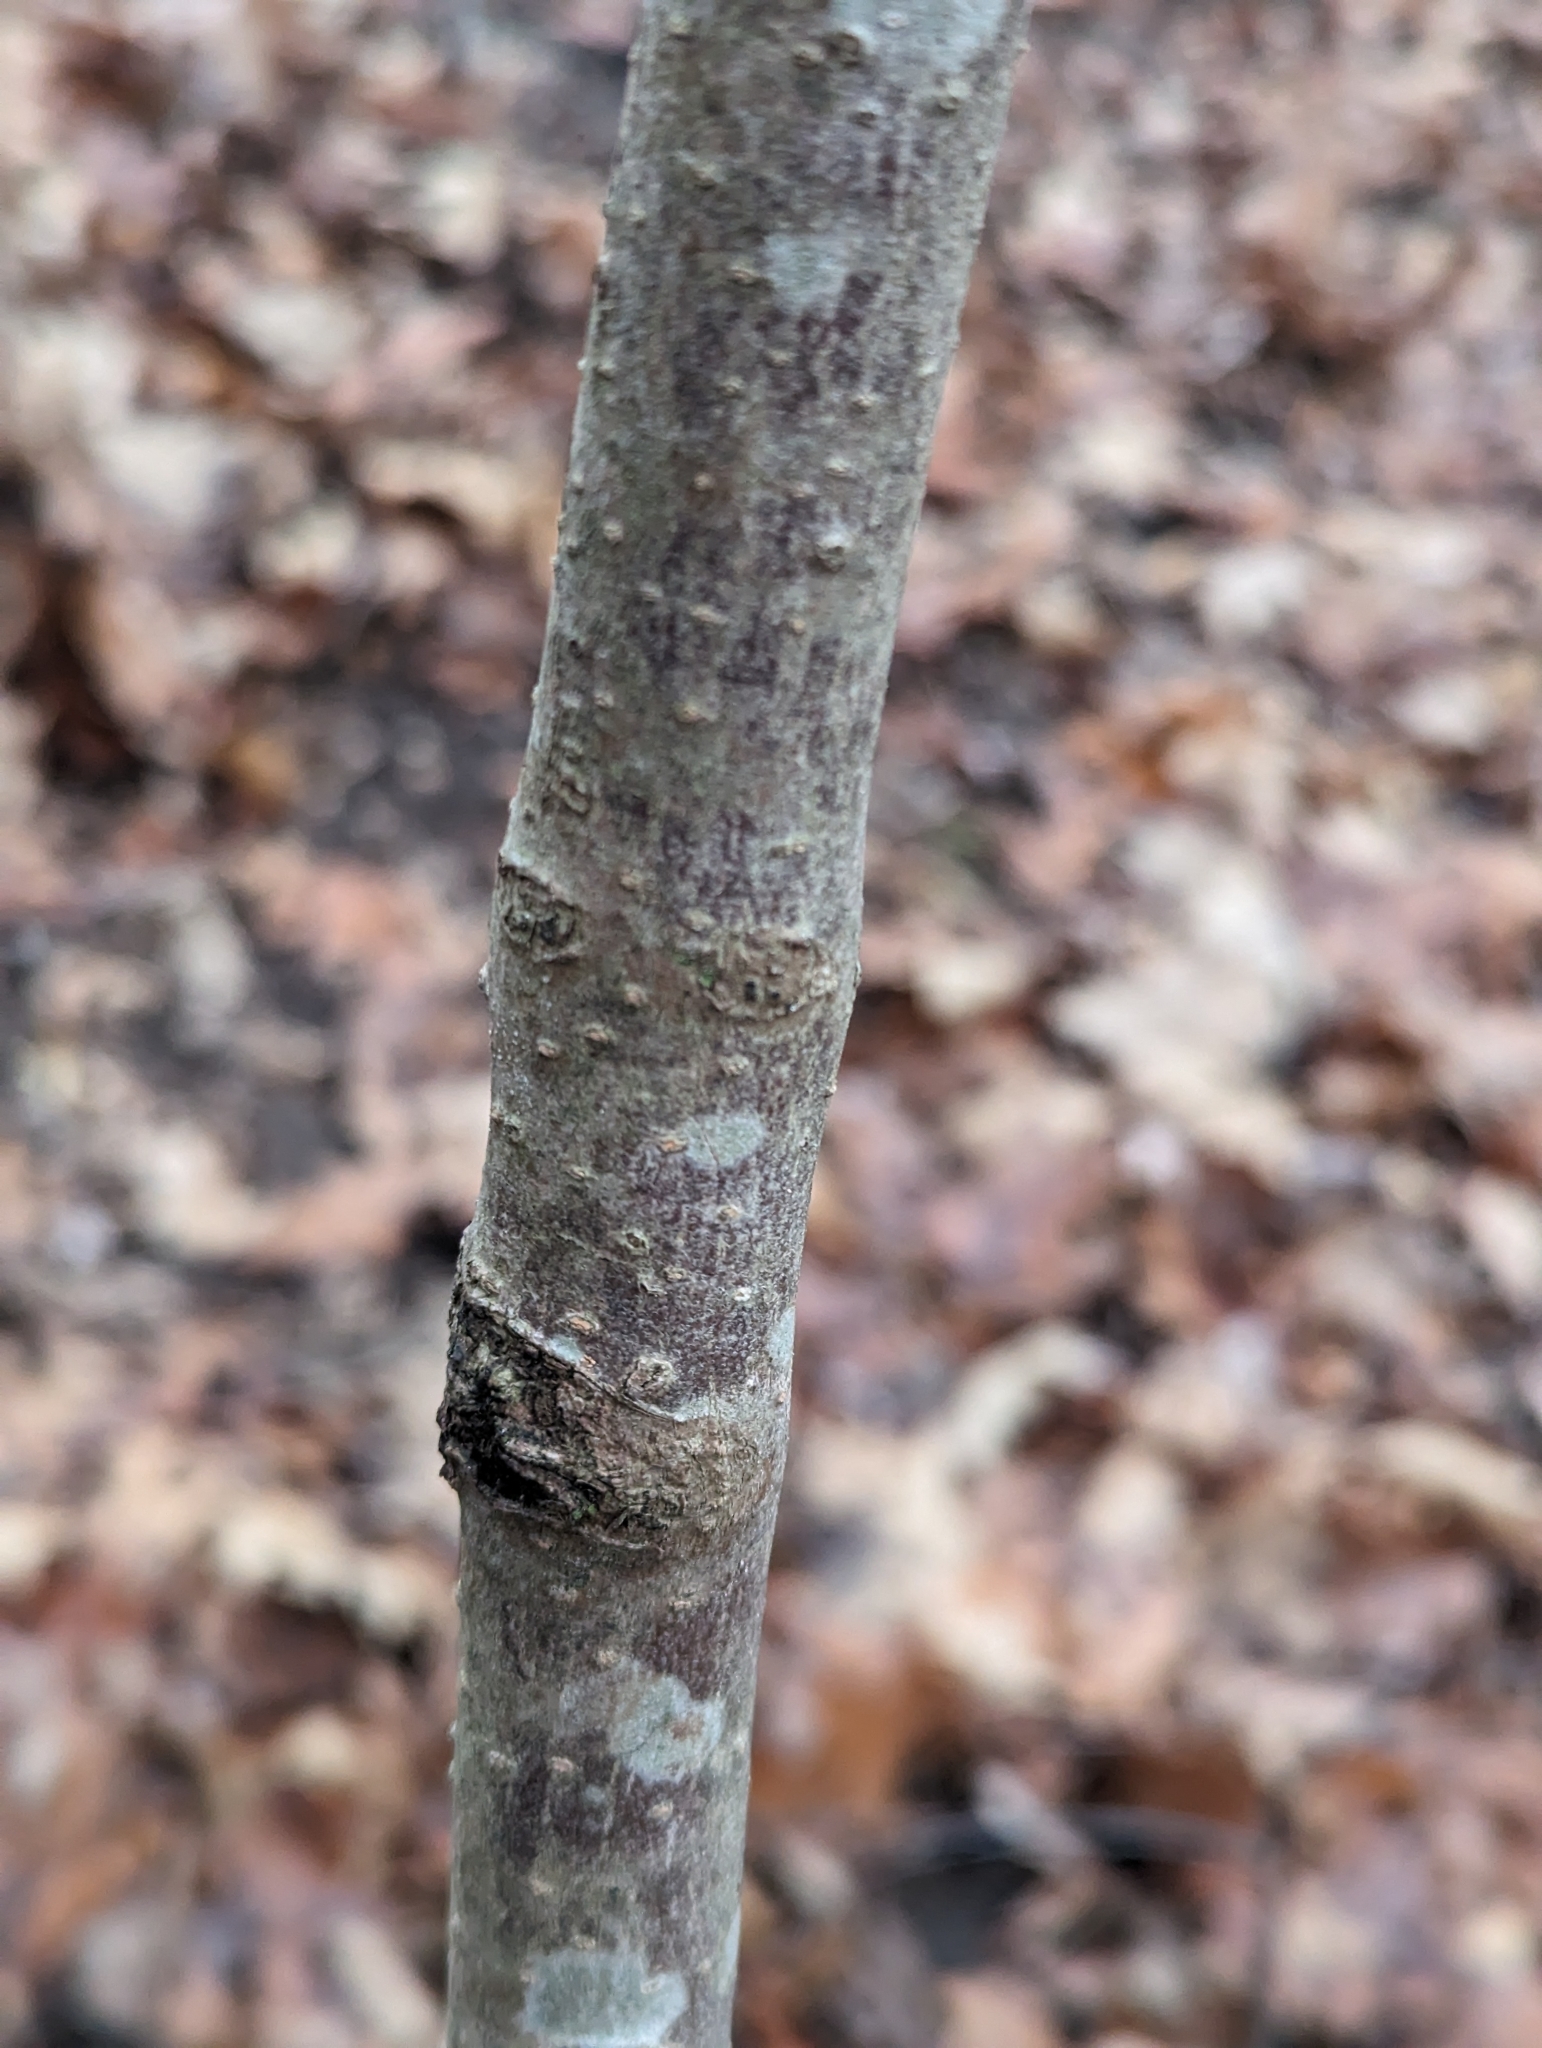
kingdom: Plantae
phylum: Tracheophyta
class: Magnoliopsida
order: Saxifragales
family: Hamamelidaceae
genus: Hamamelis
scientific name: Hamamelis virginiana
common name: Witch-hazel
